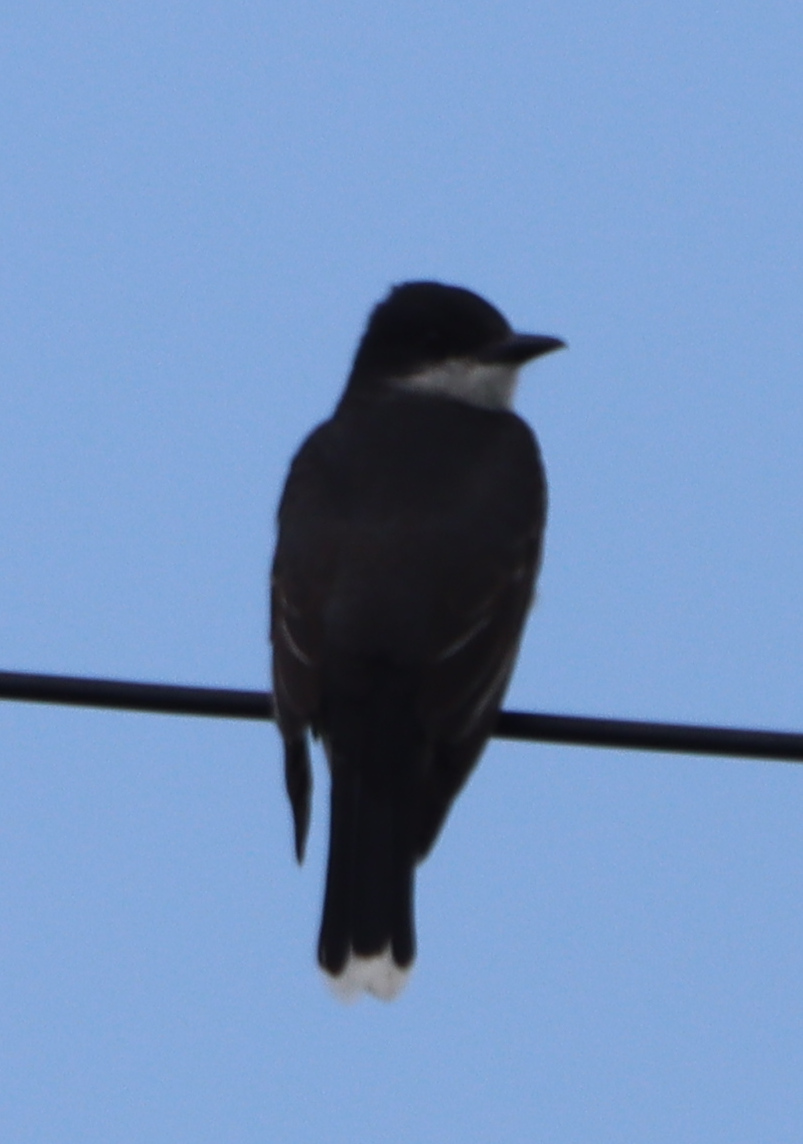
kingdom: Animalia
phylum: Chordata
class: Aves
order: Passeriformes
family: Tyrannidae
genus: Tyrannus
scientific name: Tyrannus tyrannus
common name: Eastern kingbird
